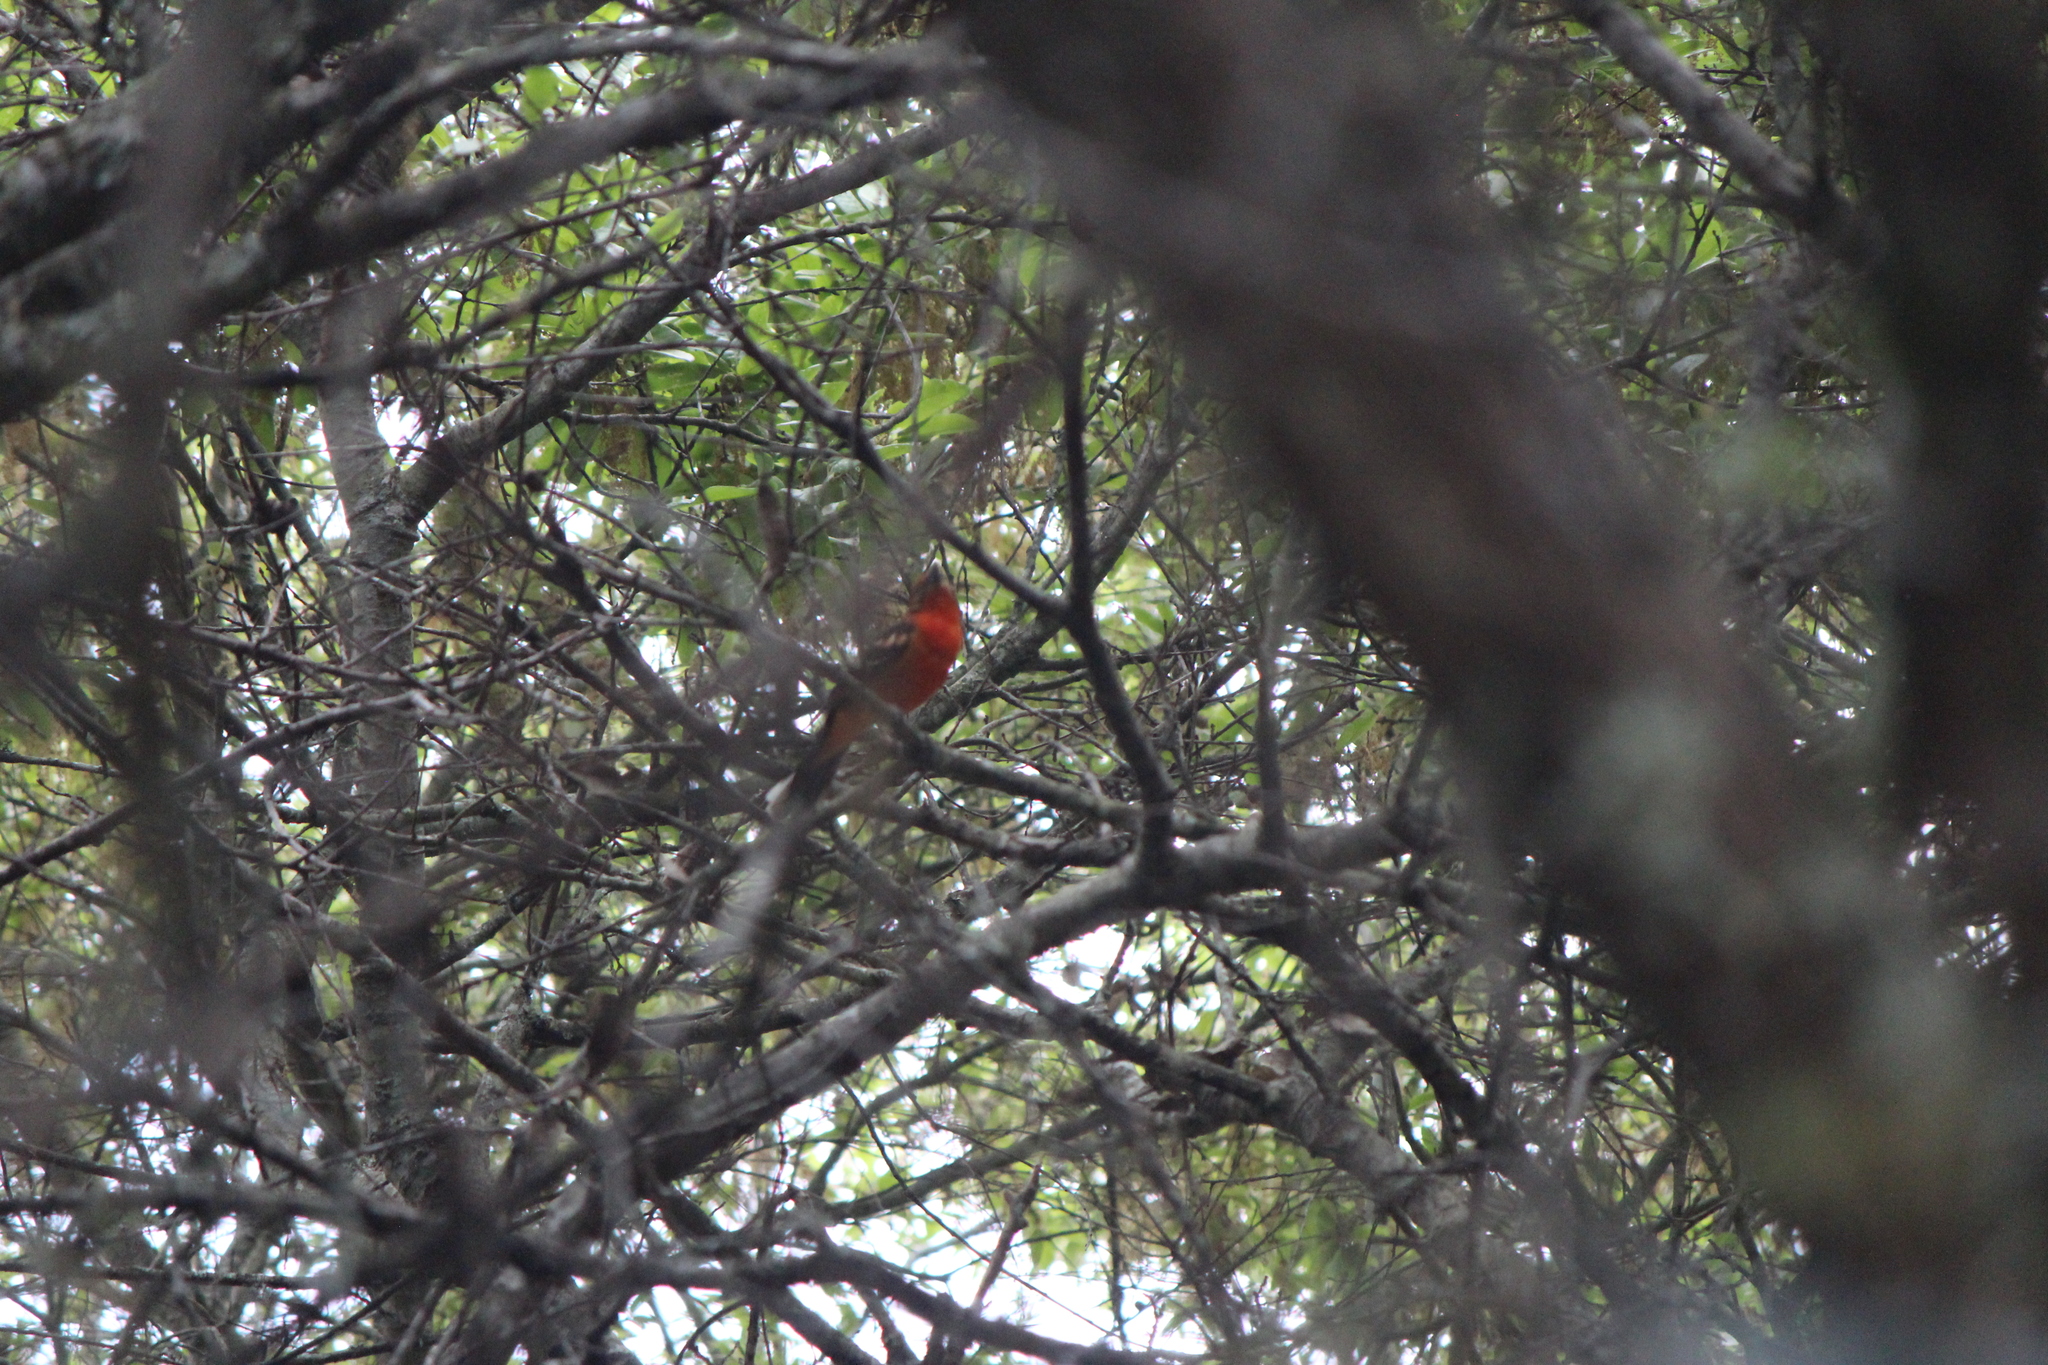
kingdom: Animalia
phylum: Chordata
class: Aves
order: Passeriformes
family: Cardinalidae
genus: Piranga
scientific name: Piranga bidentata
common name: Flame-colored tanager
